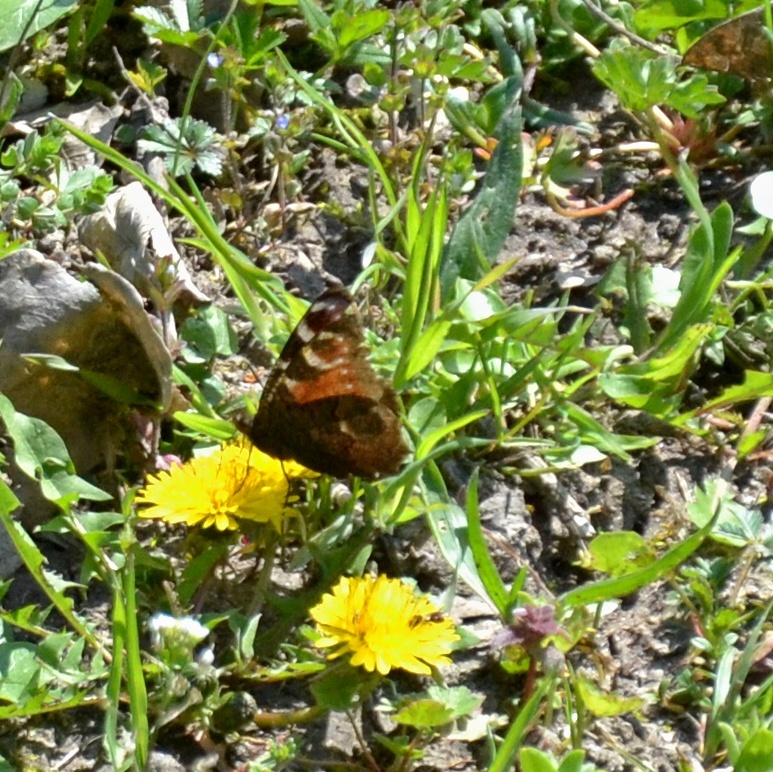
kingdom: Animalia
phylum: Arthropoda
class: Insecta
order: Lepidoptera
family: Nymphalidae
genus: Aglais
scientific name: Aglais io
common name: Peacock
